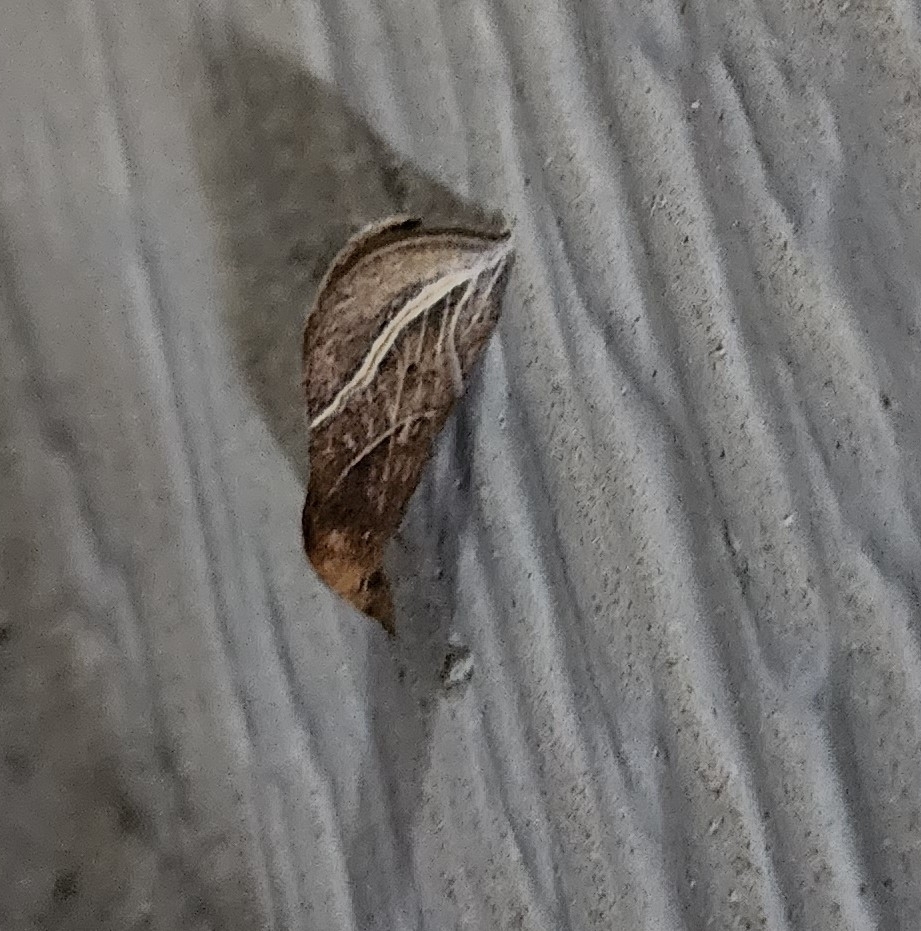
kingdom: Animalia
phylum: Arthropoda
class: Insecta
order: Lepidoptera
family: Erebidae
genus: Phyprosopus
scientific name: Phyprosopus callitrichoides
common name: Curved-lined owlet
